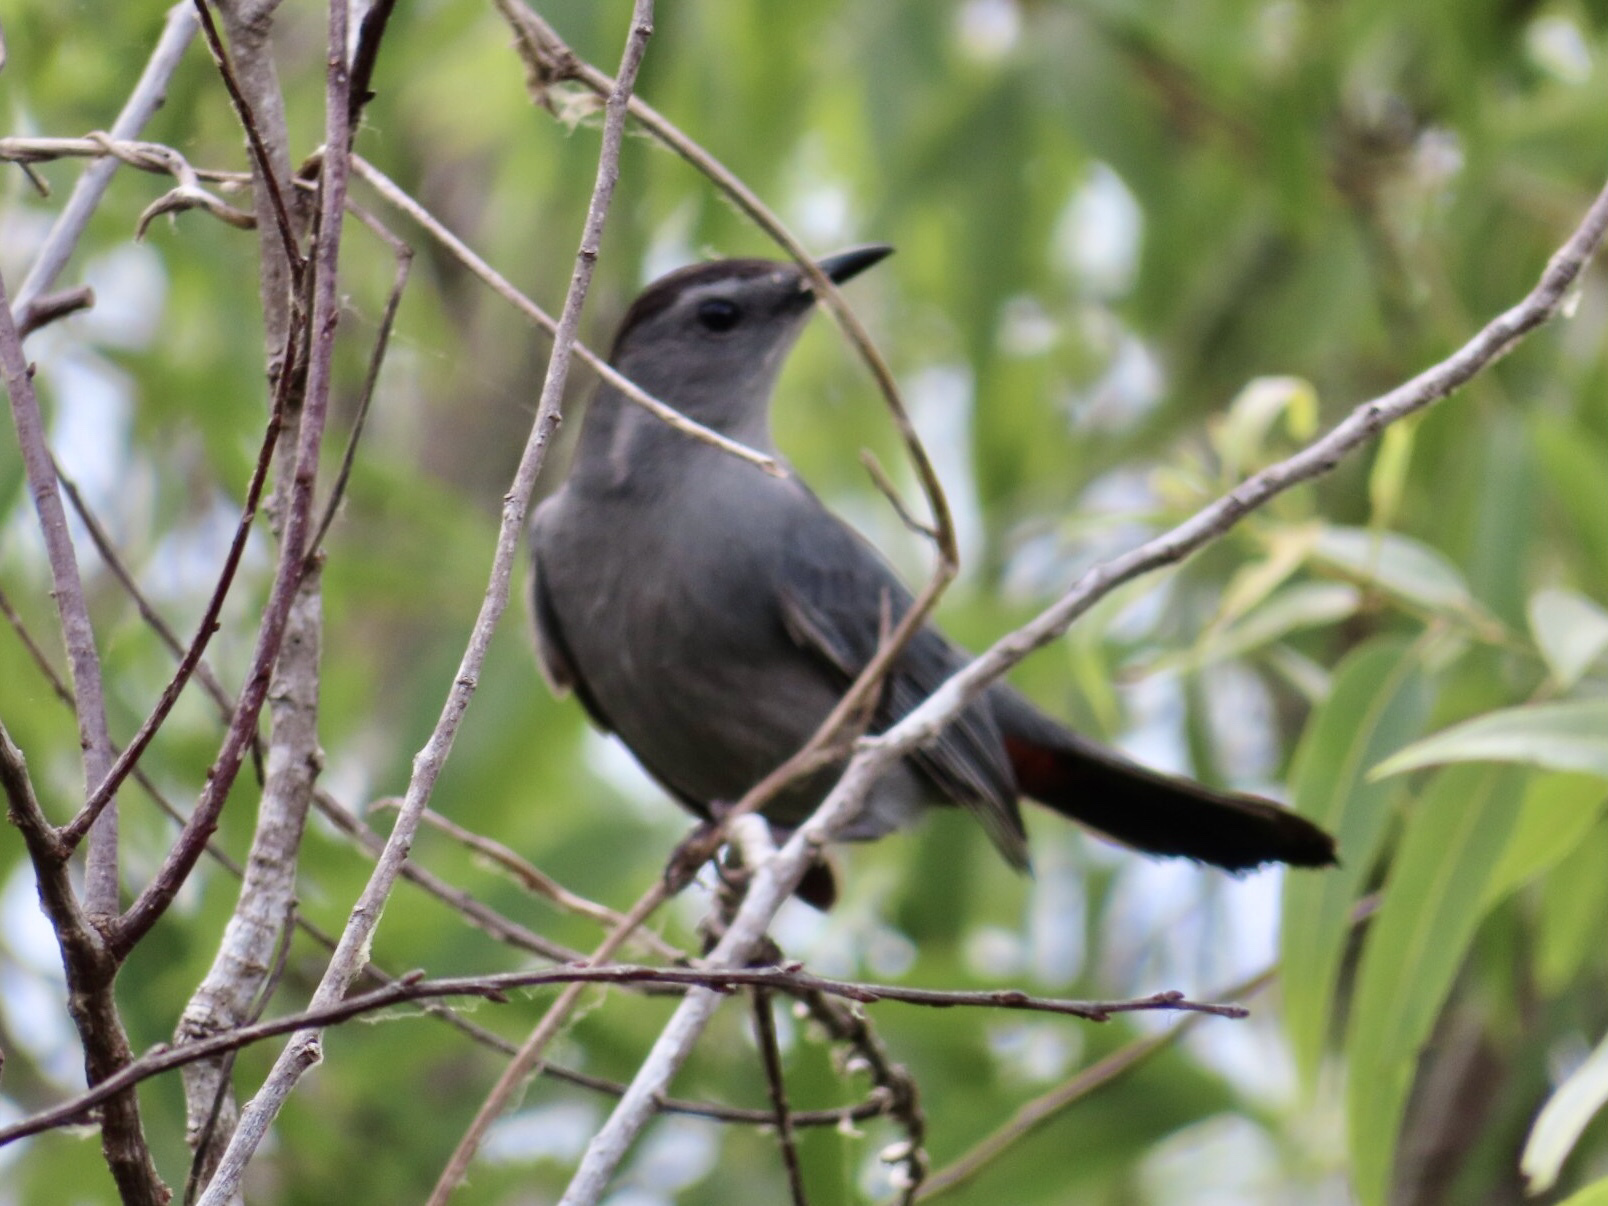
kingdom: Animalia
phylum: Chordata
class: Aves
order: Passeriformes
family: Mimidae
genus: Dumetella
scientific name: Dumetella carolinensis
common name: Gray catbird
